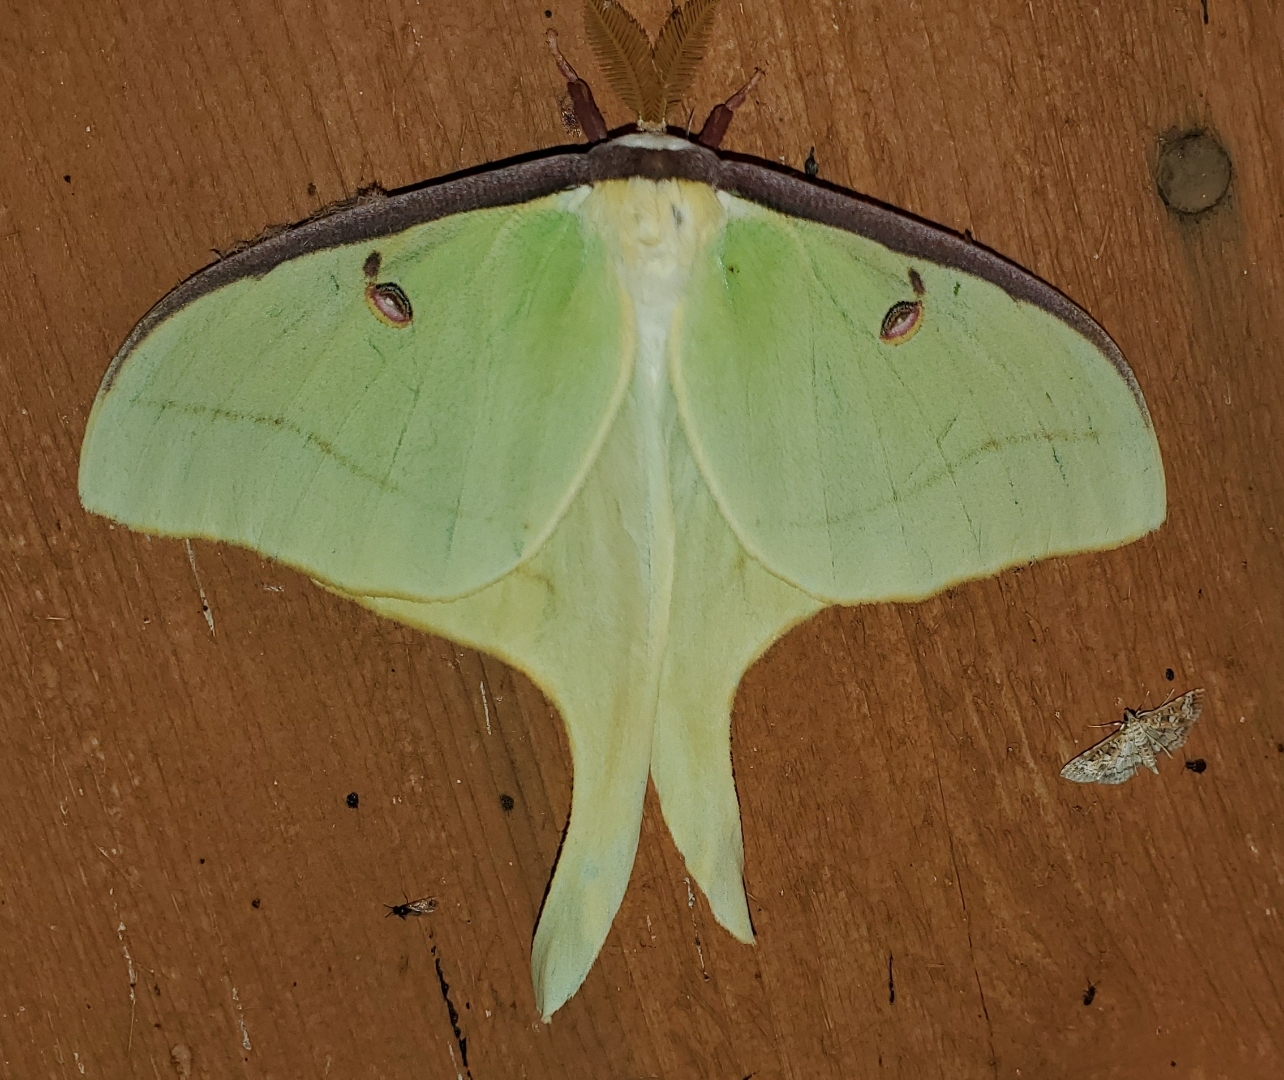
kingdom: Animalia
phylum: Arthropoda
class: Insecta
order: Lepidoptera
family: Saturniidae
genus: Actias
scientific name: Actias luna
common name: Luna moth
